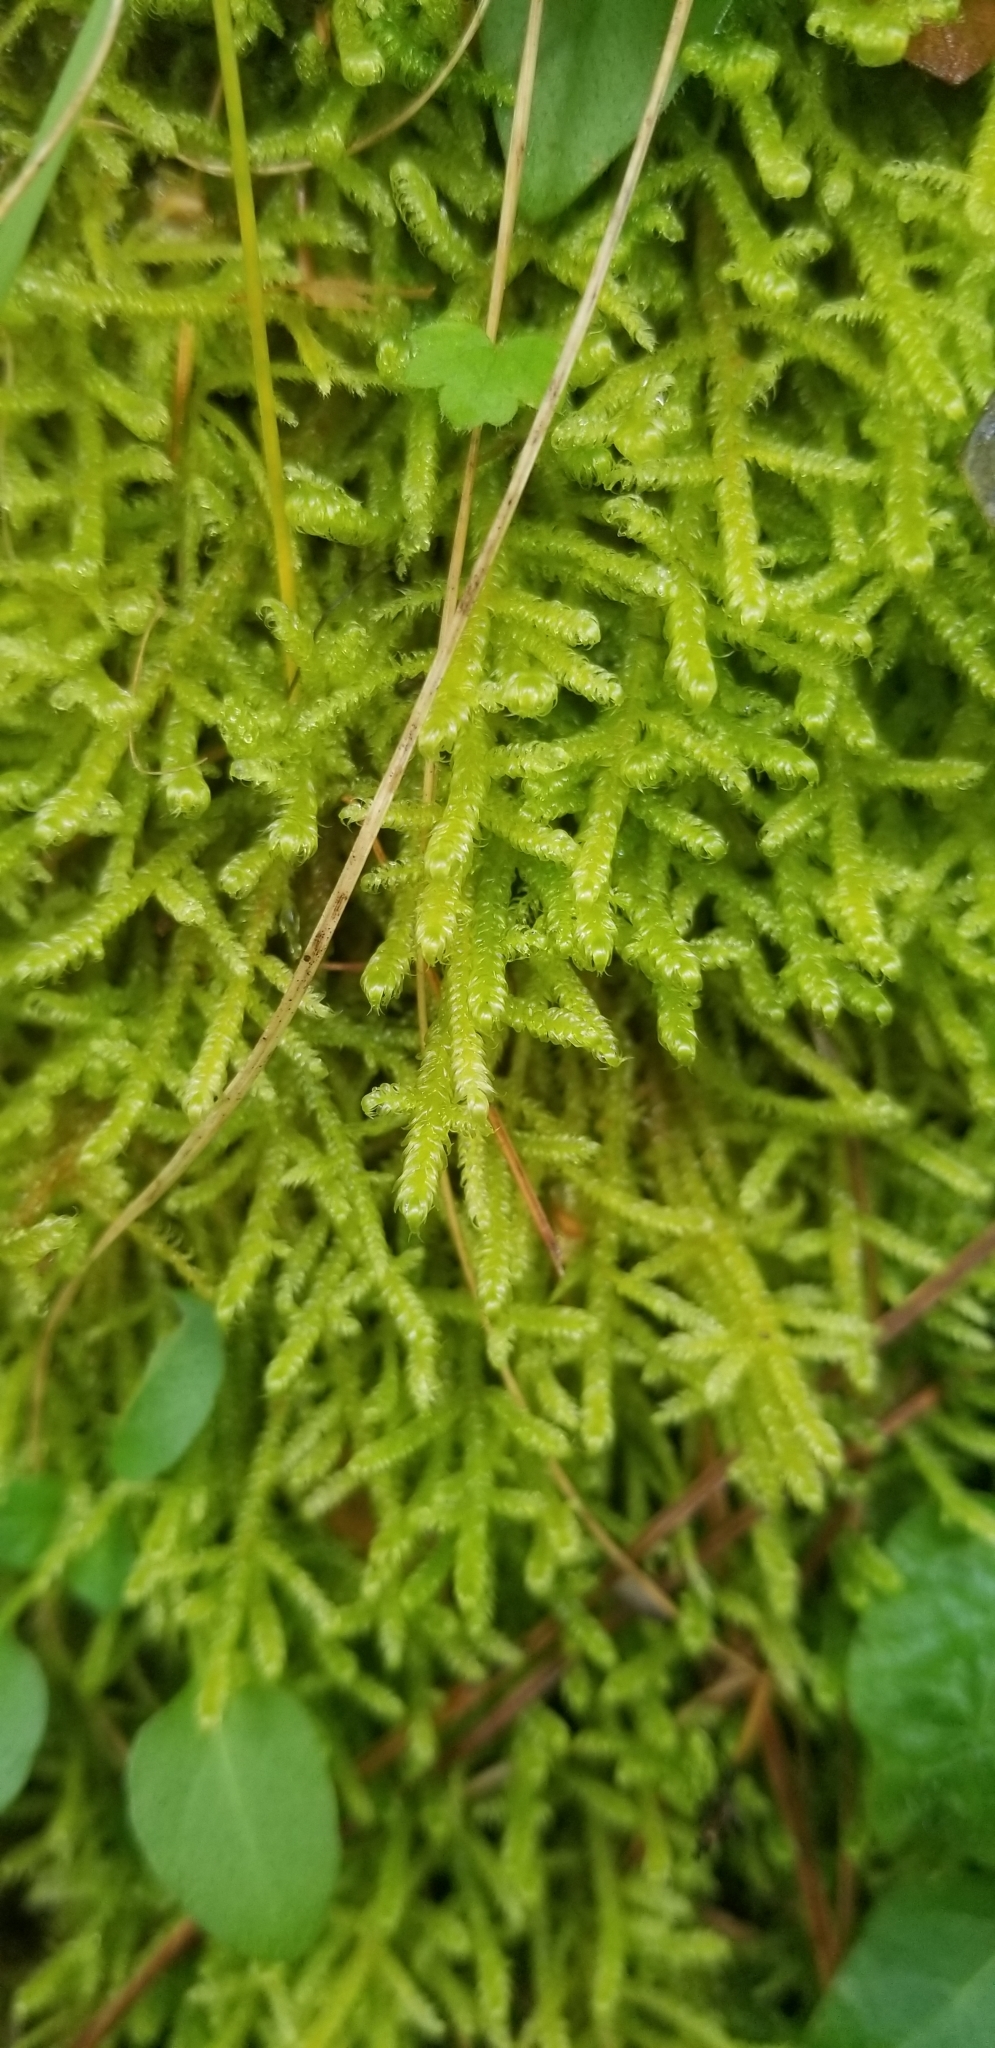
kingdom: Plantae
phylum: Bryophyta
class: Bryopsida
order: Hypnales
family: Pylaisiaceae
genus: Calliergonella
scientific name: Calliergonella lindbergii
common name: Lindberg's plait-moss
